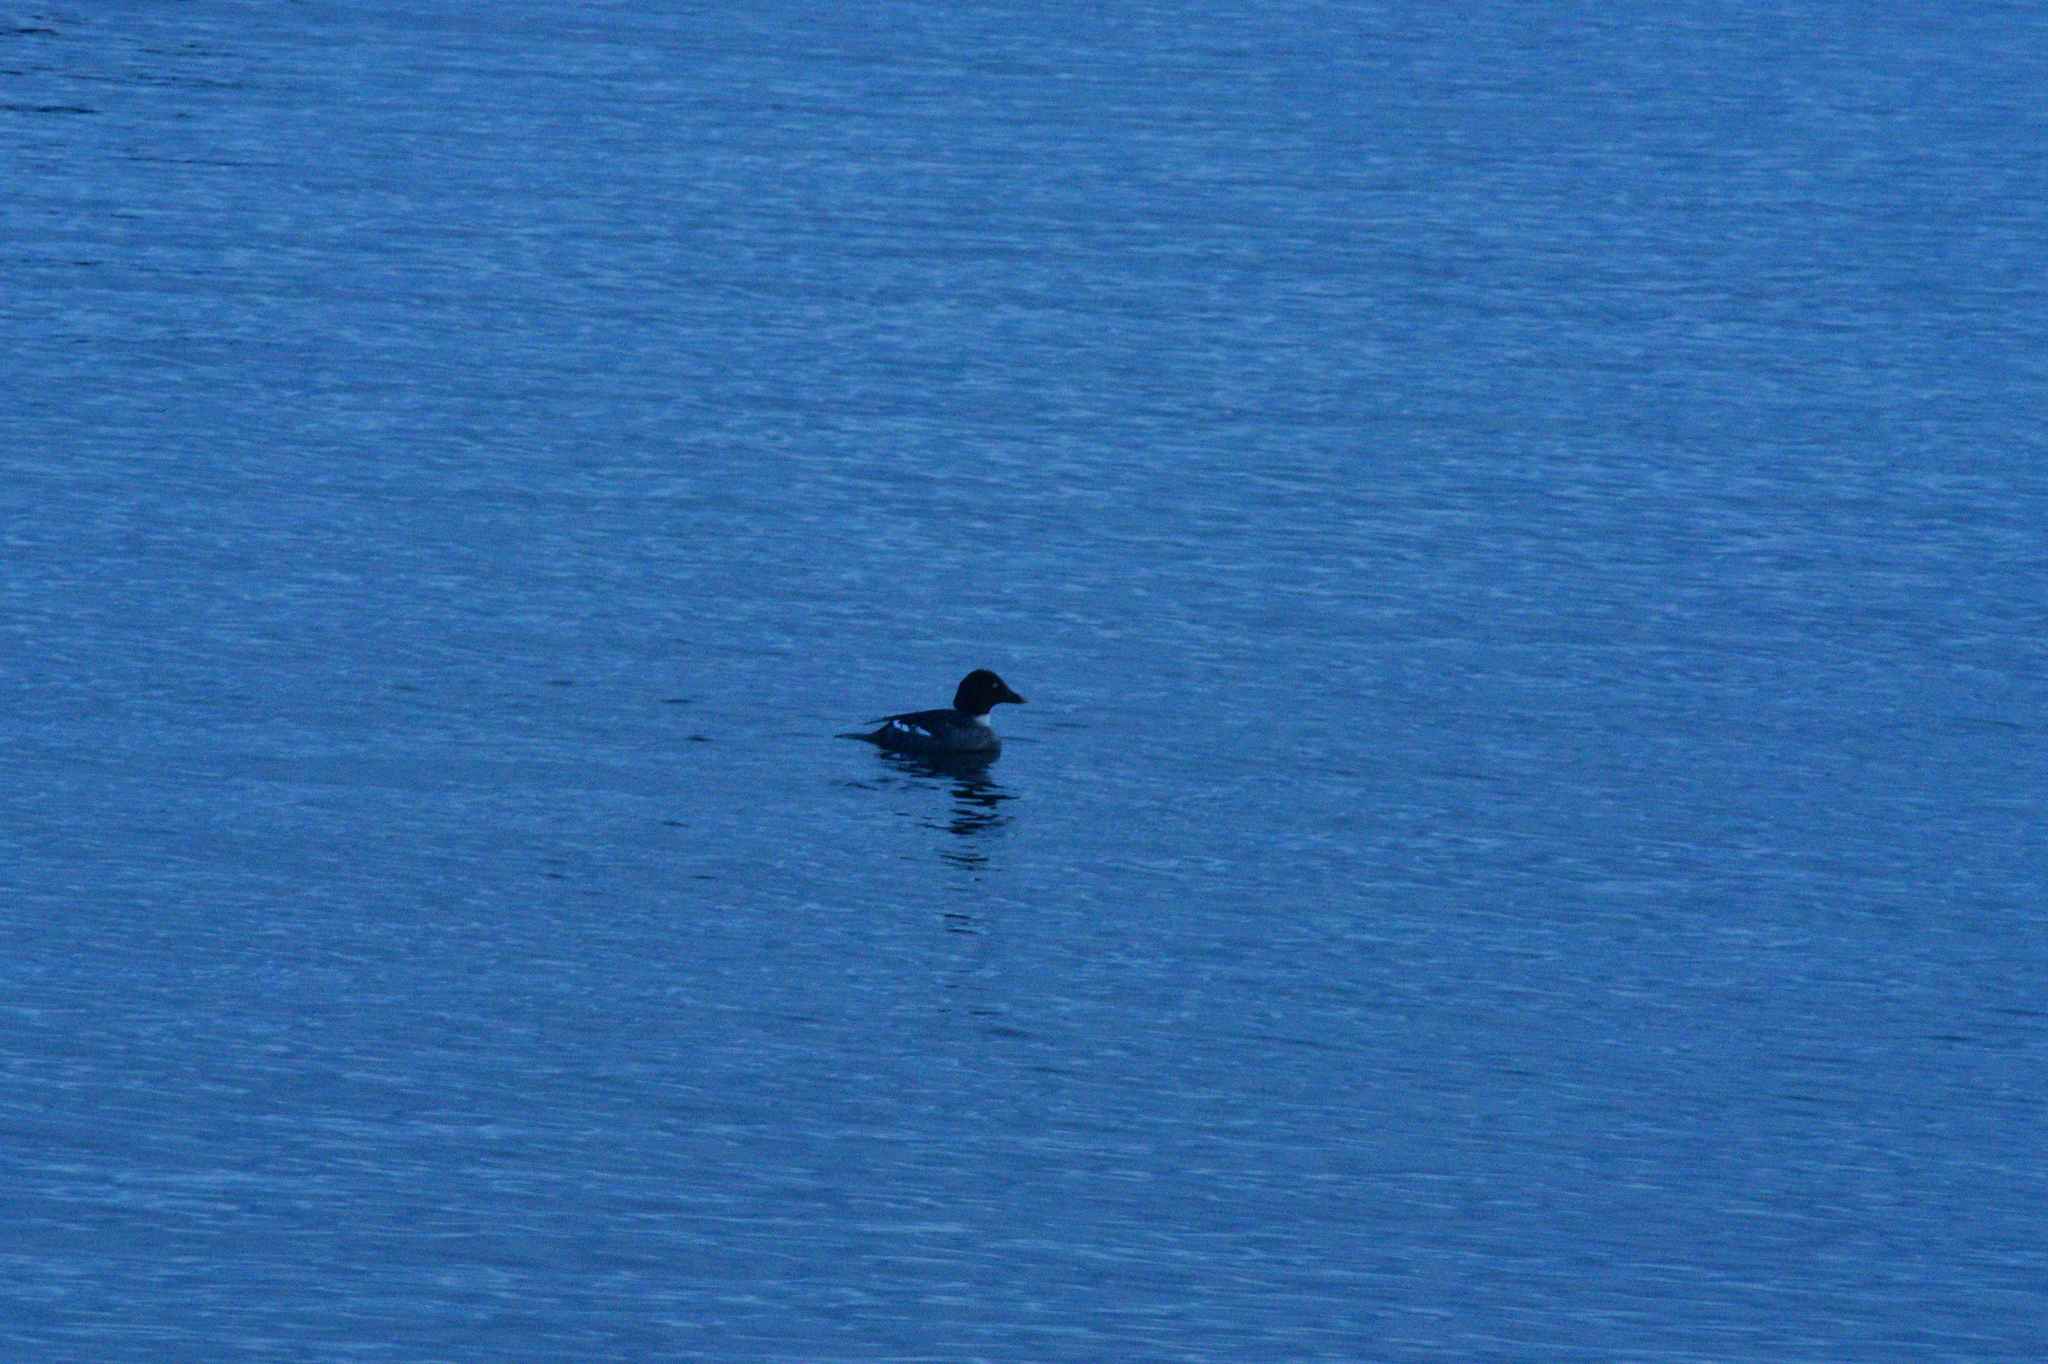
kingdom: Animalia
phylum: Chordata
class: Aves
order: Anseriformes
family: Anatidae
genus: Bucephala
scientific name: Bucephala clangula
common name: Common goldeneye
